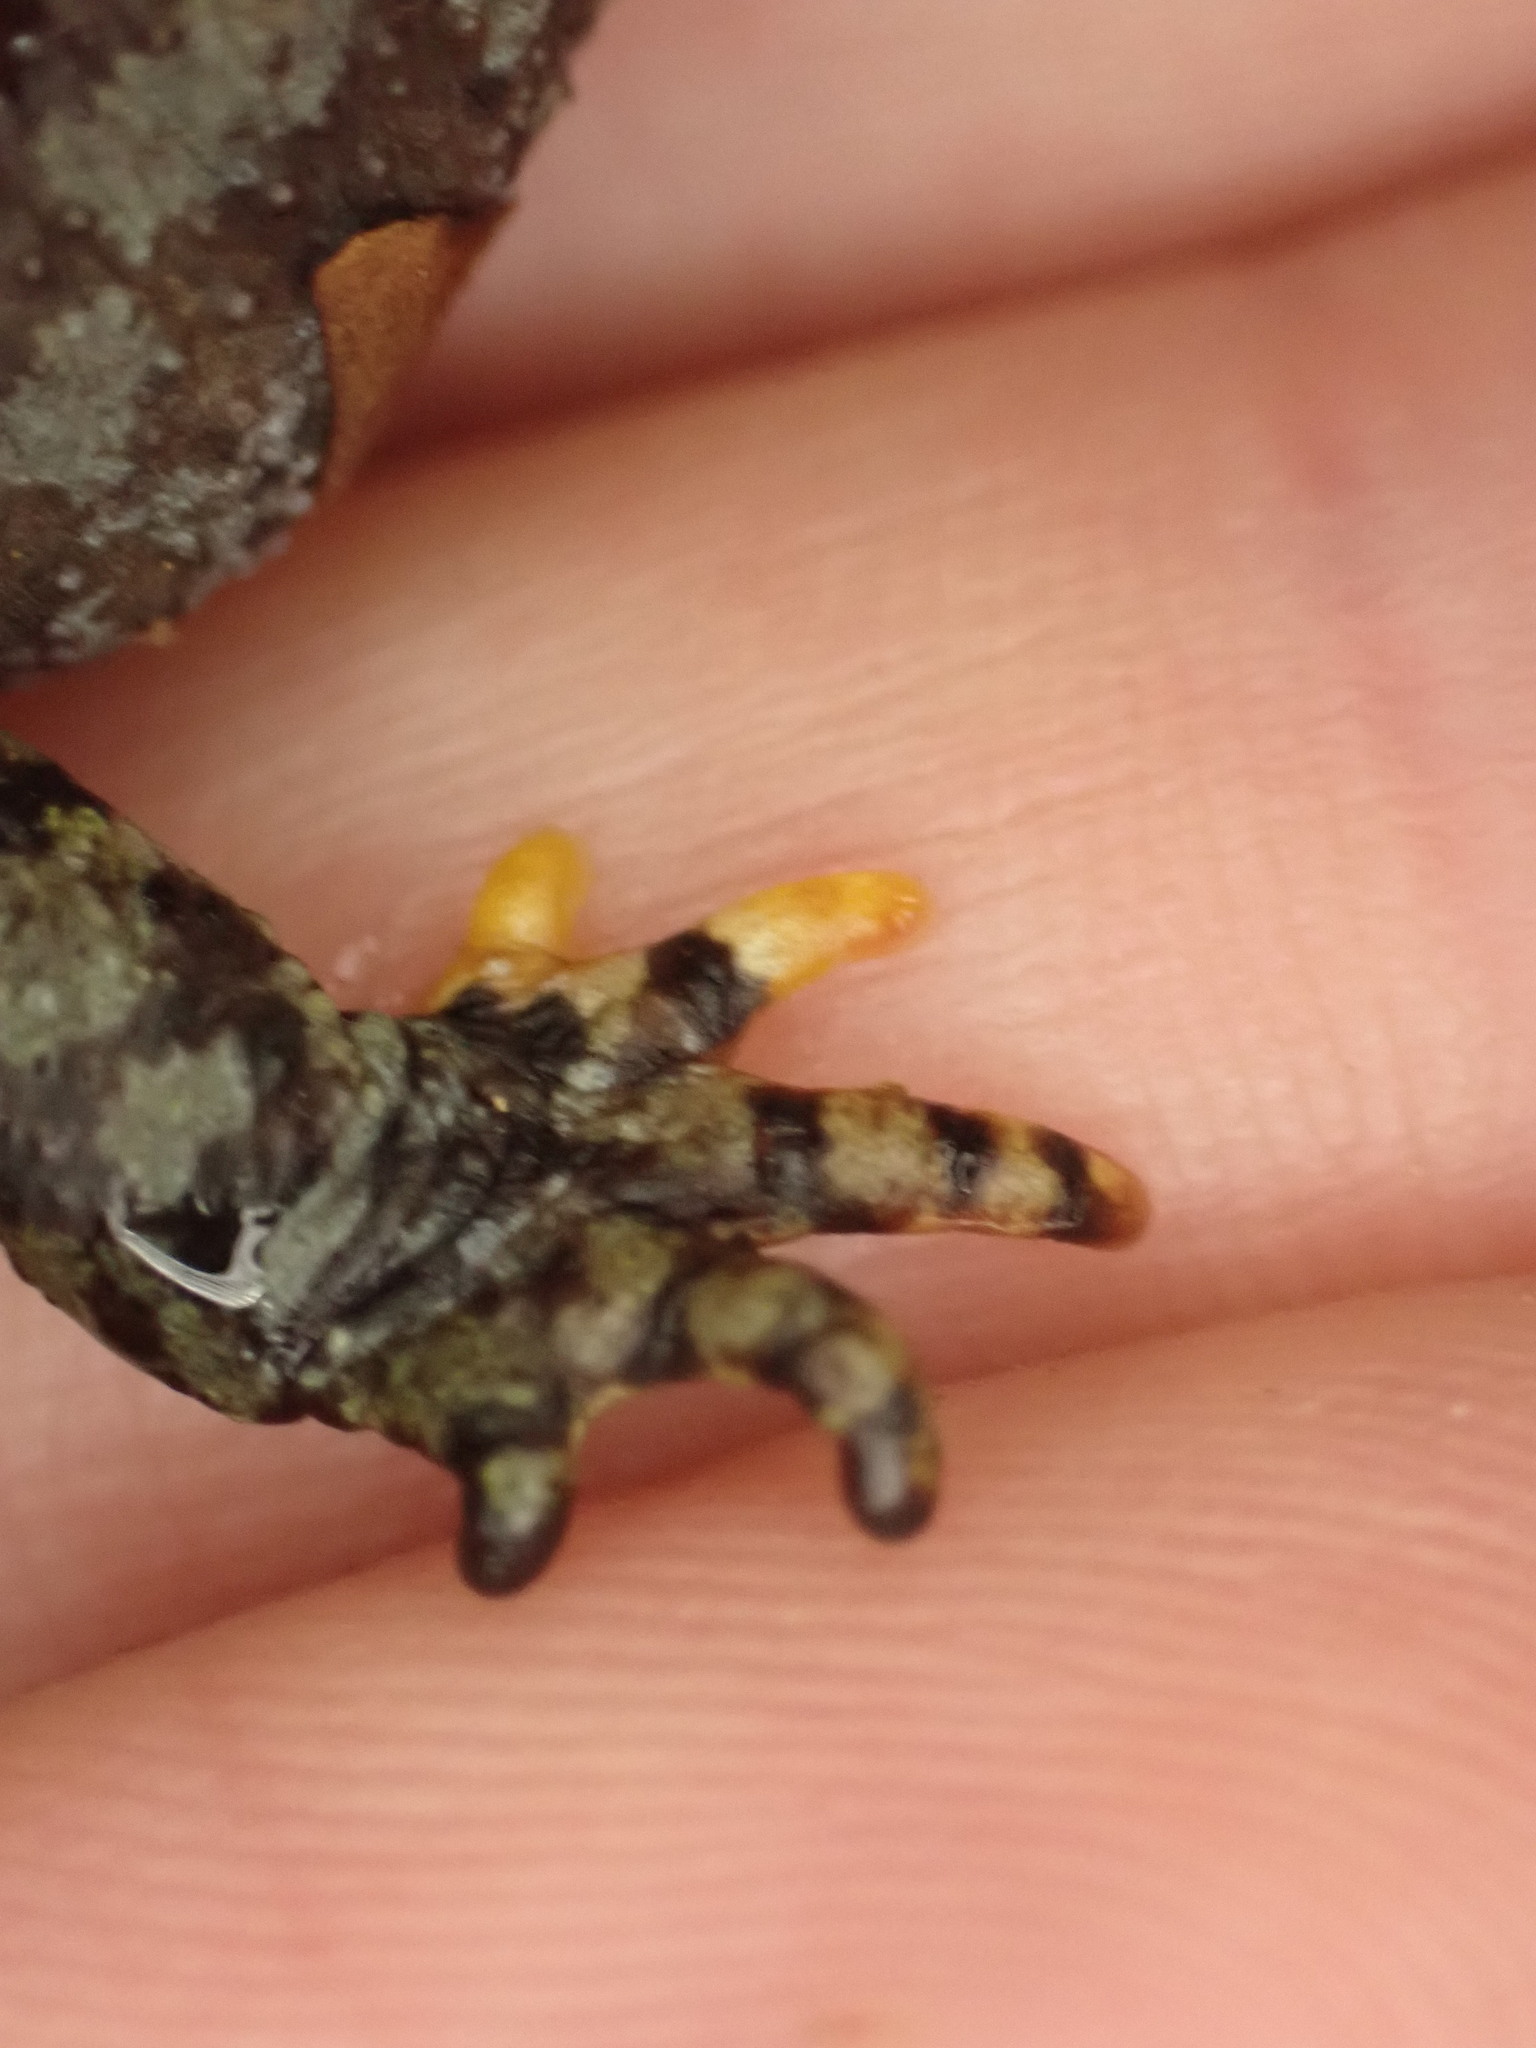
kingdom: Animalia
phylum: Chordata
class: Amphibia
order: Caudata
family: Salamandridae
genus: Ichthyosaura
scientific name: Ichthyosaura alpestris
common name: Alpine newt
